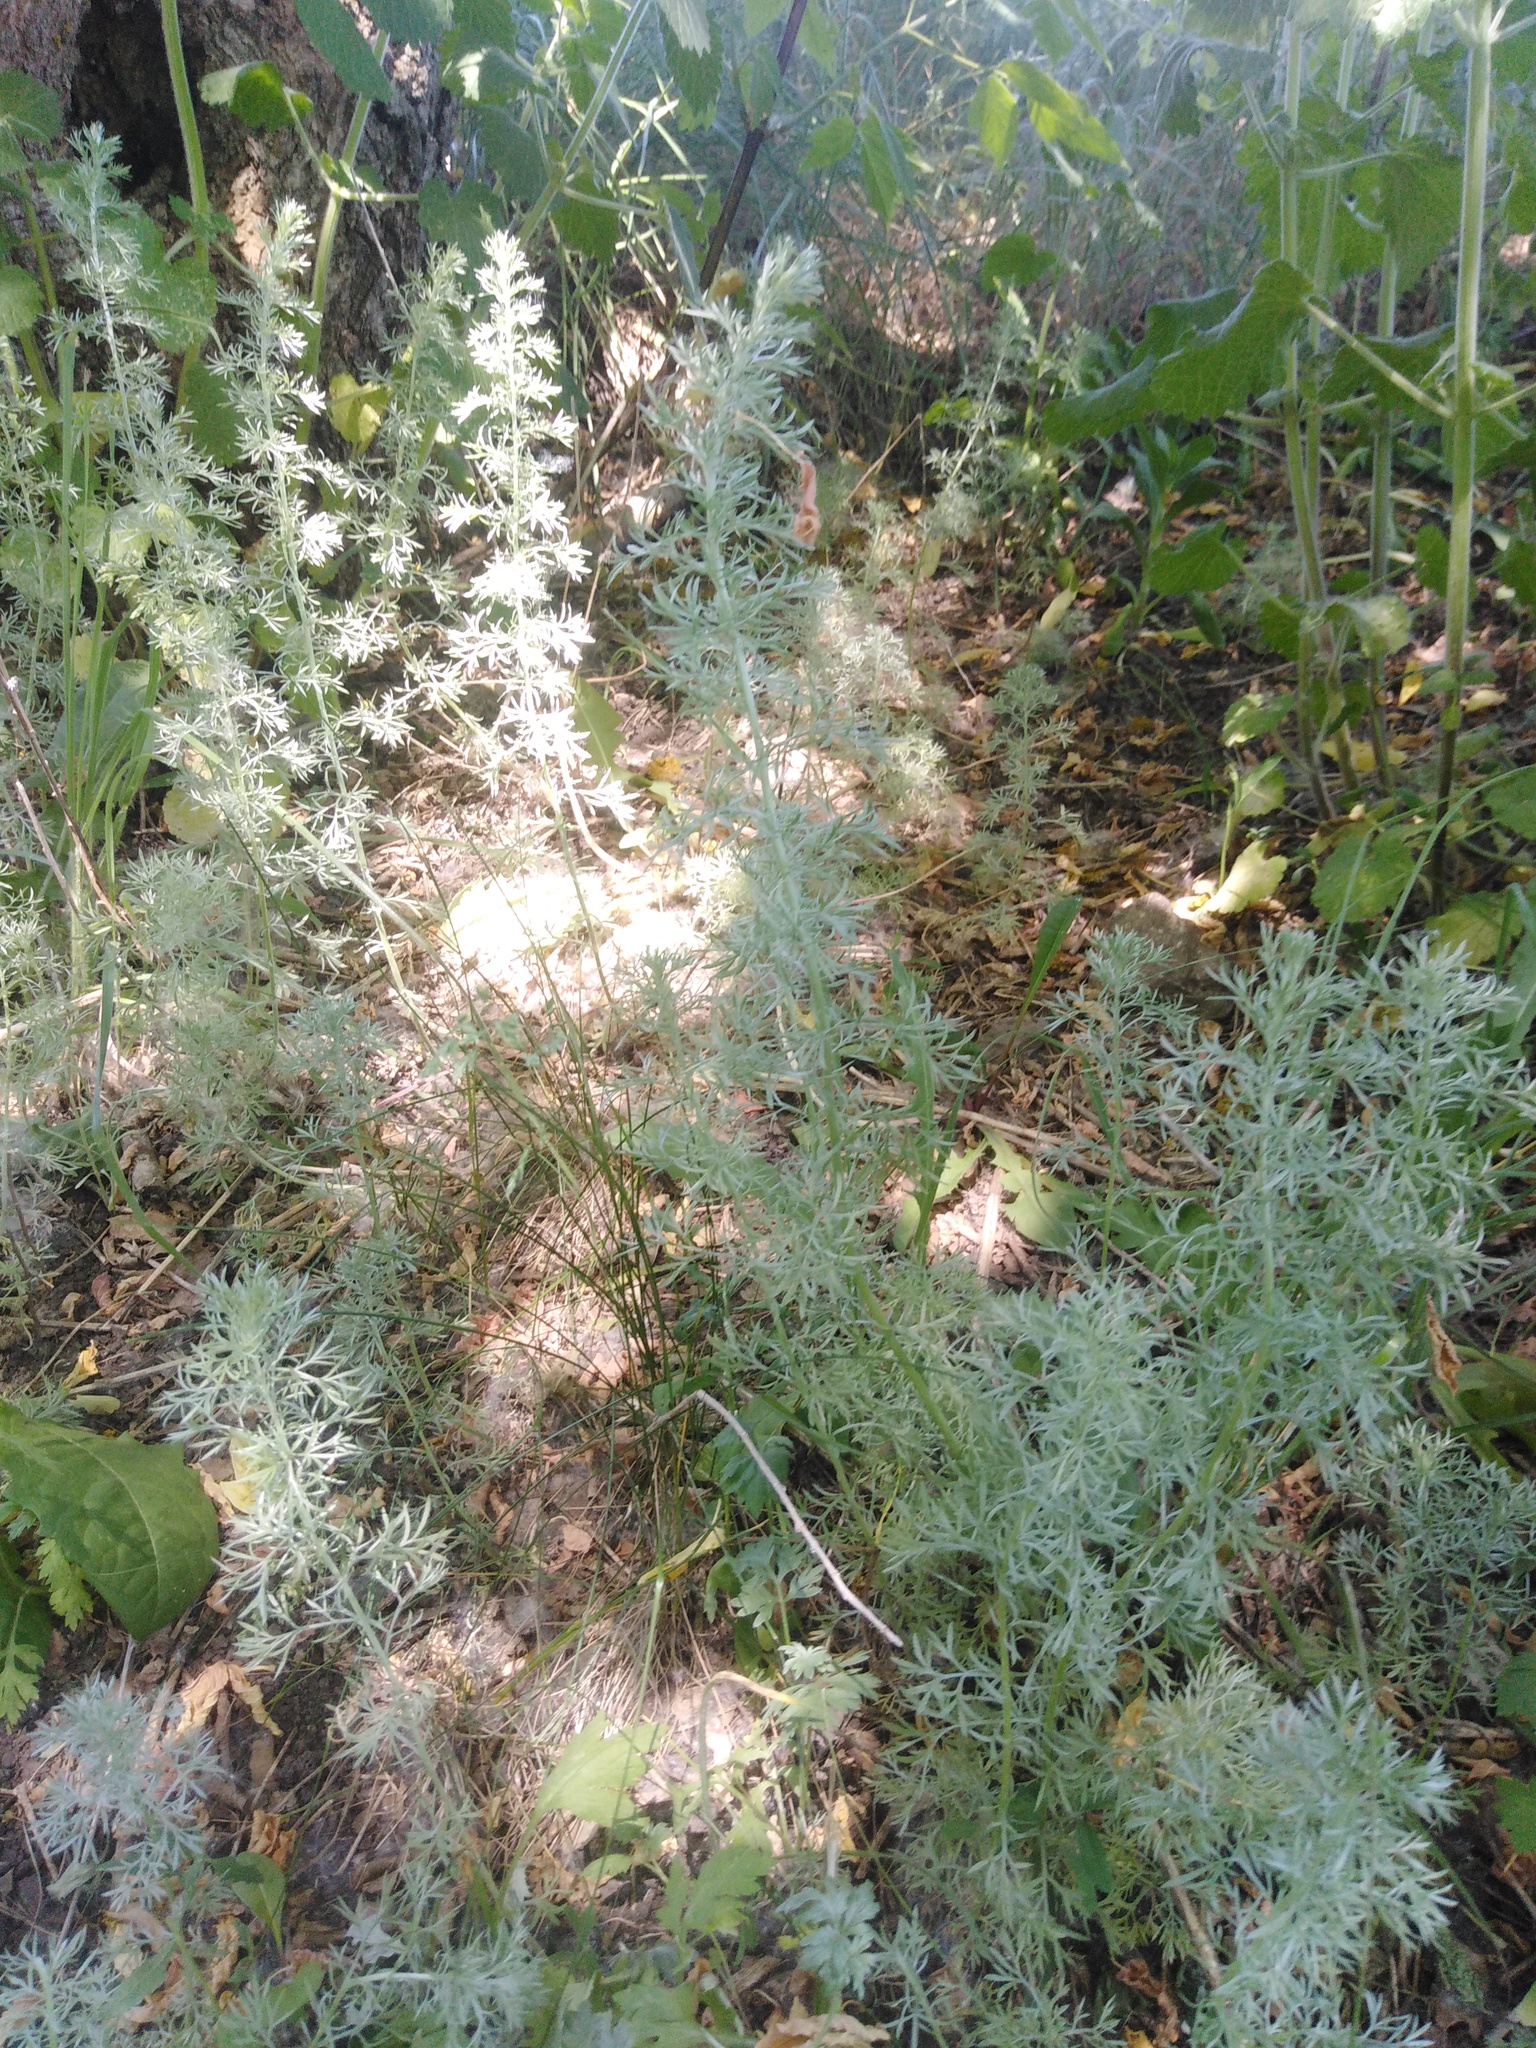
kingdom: Plantae
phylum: Tracheophyta
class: Magnoliopsida
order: Asterales
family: Asteraceae
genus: Artemisia
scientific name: Artemisia austriaca
